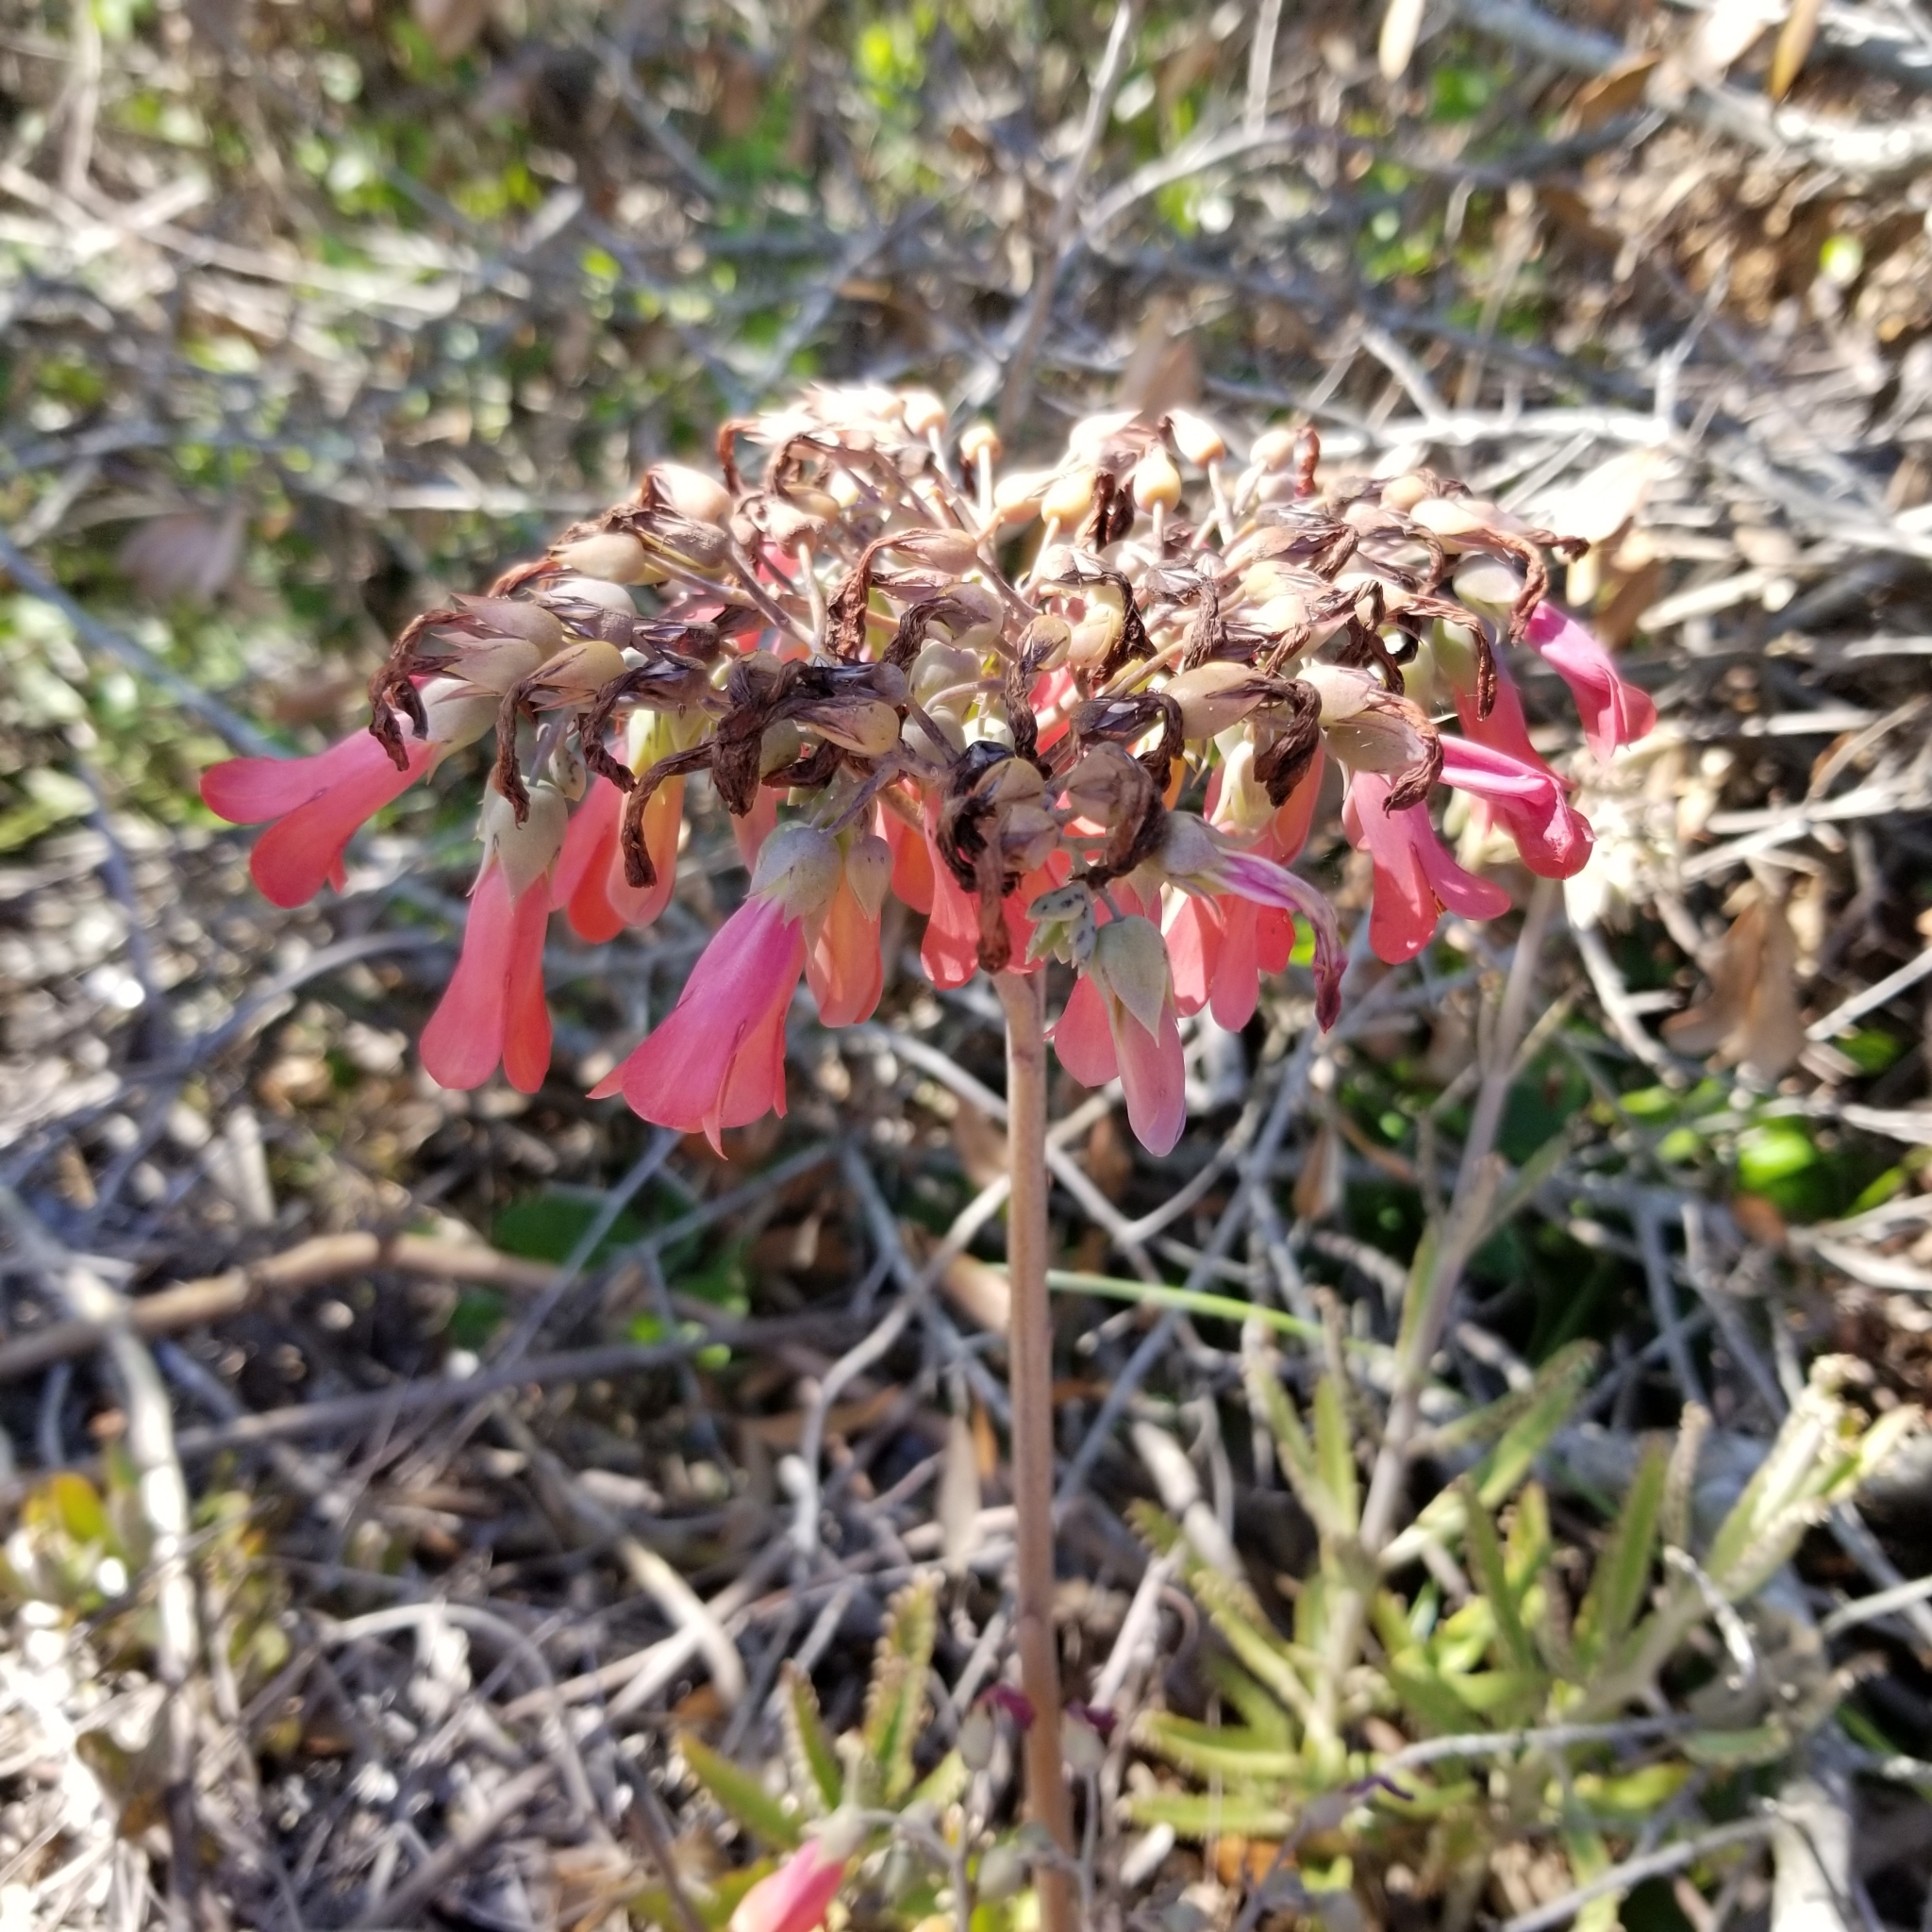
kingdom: Plantae
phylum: Tracheophyta
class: Magnoliopsida
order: Saxifragales
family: Crassulaceae
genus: Kalanchoe
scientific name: Kalanchoe delagoensis
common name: Chandelier plant
